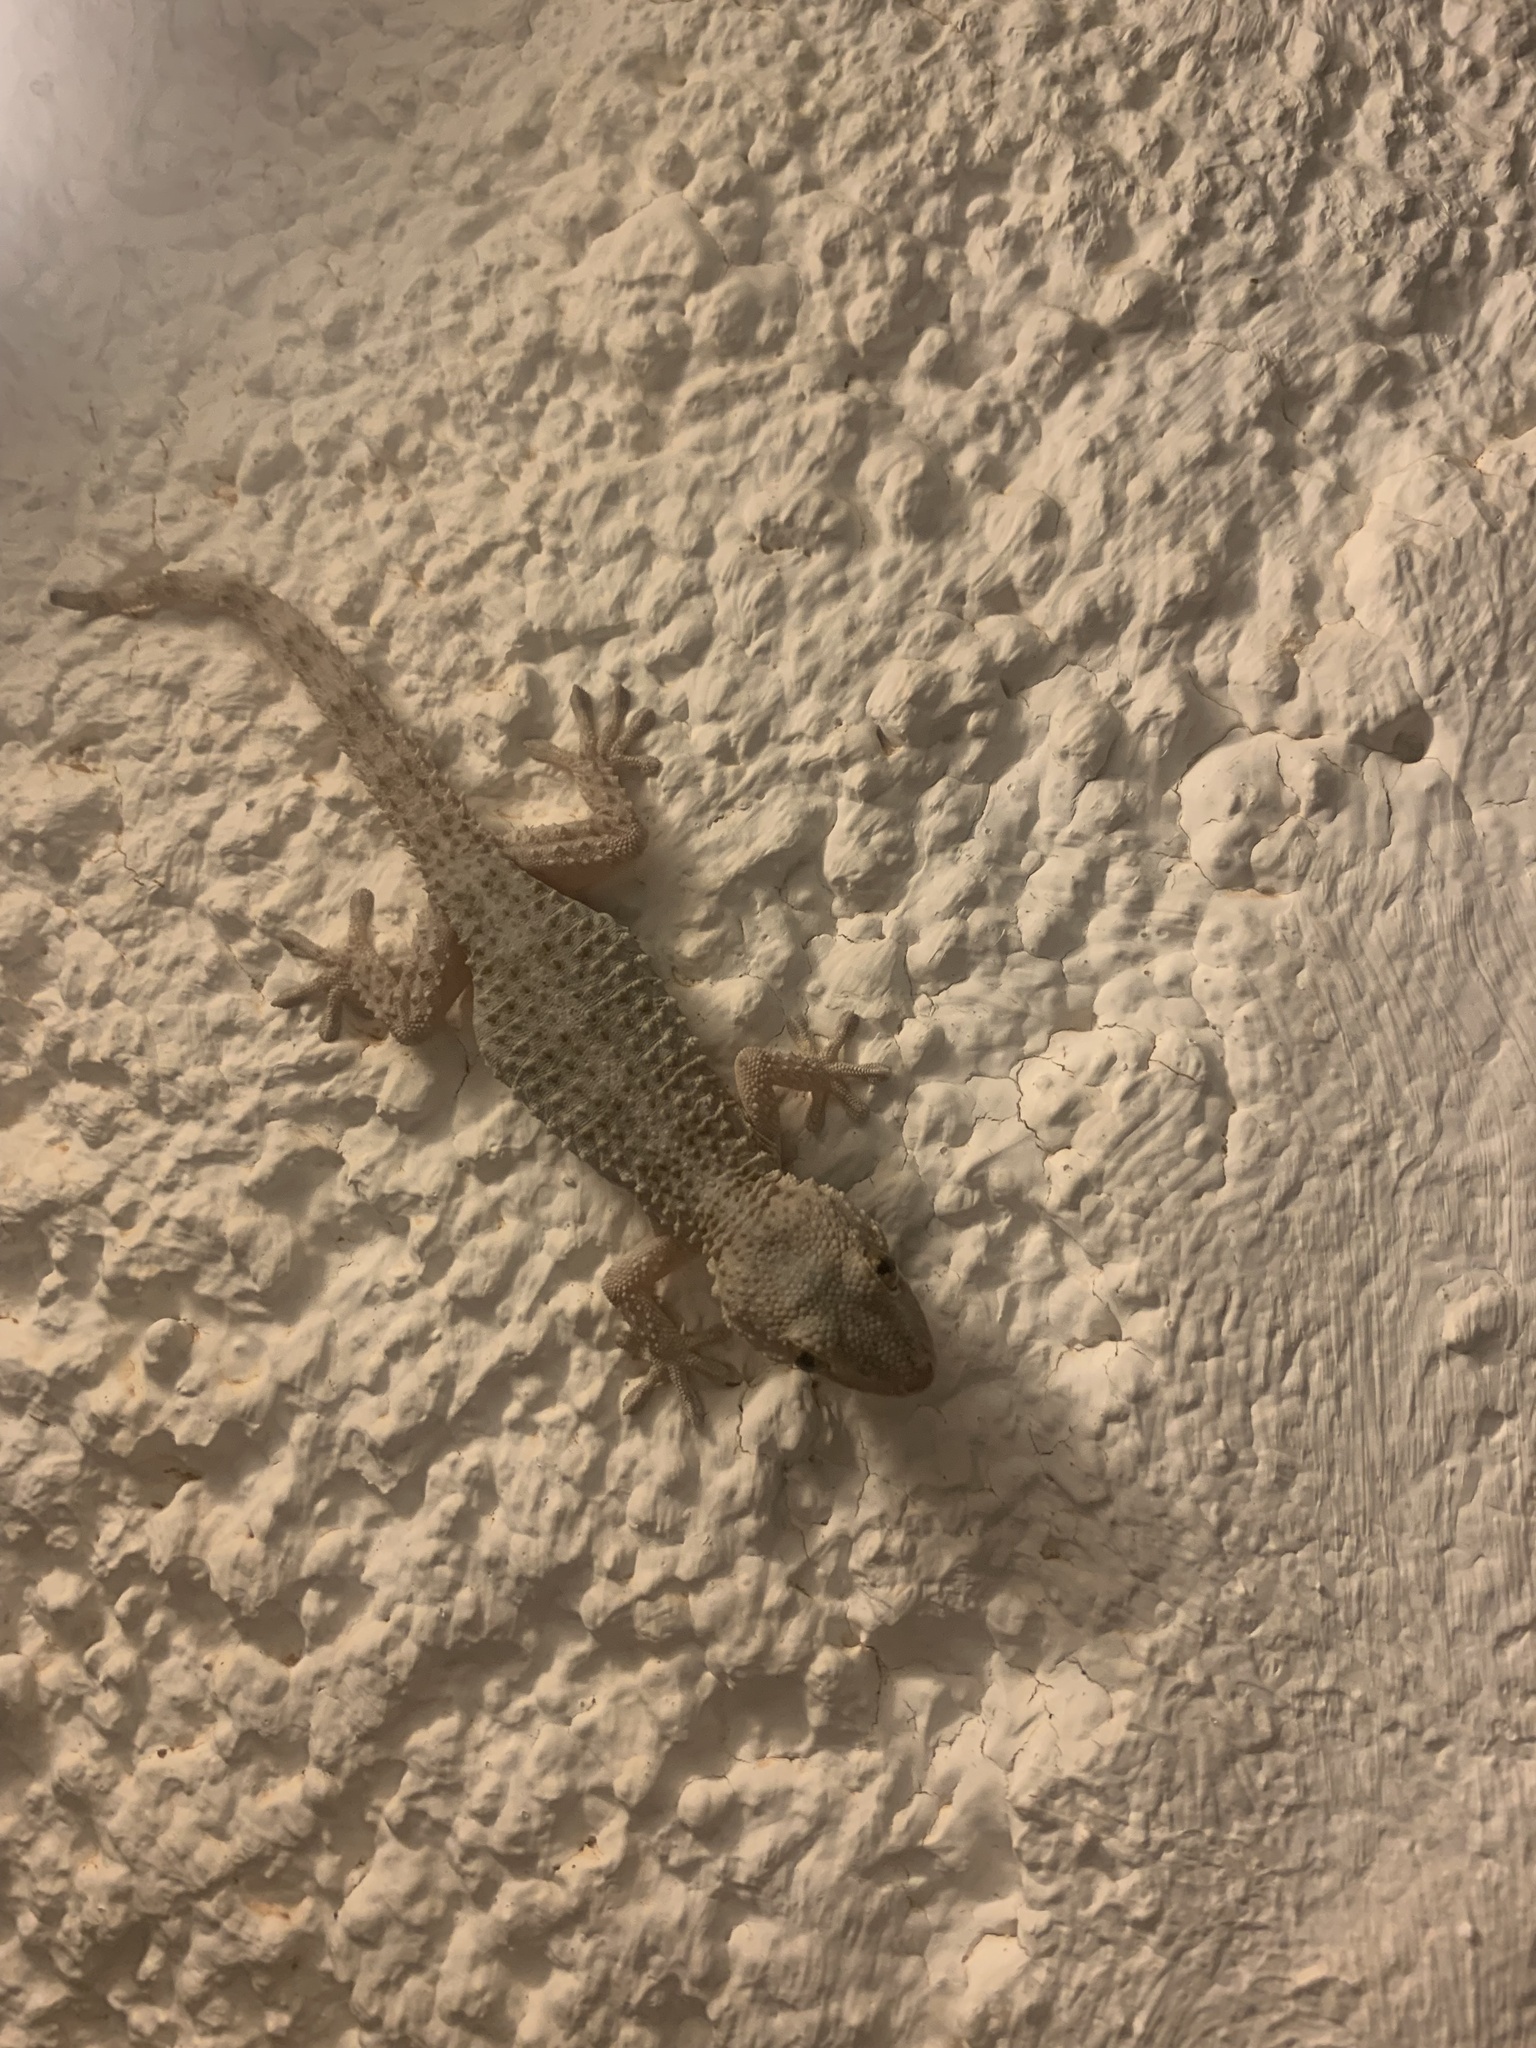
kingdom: Animalia
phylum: Chordata
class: Squamata
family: Phyllodactylidae
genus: Tarentola
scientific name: Tarentola mauritanica
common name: Moorish gecko
